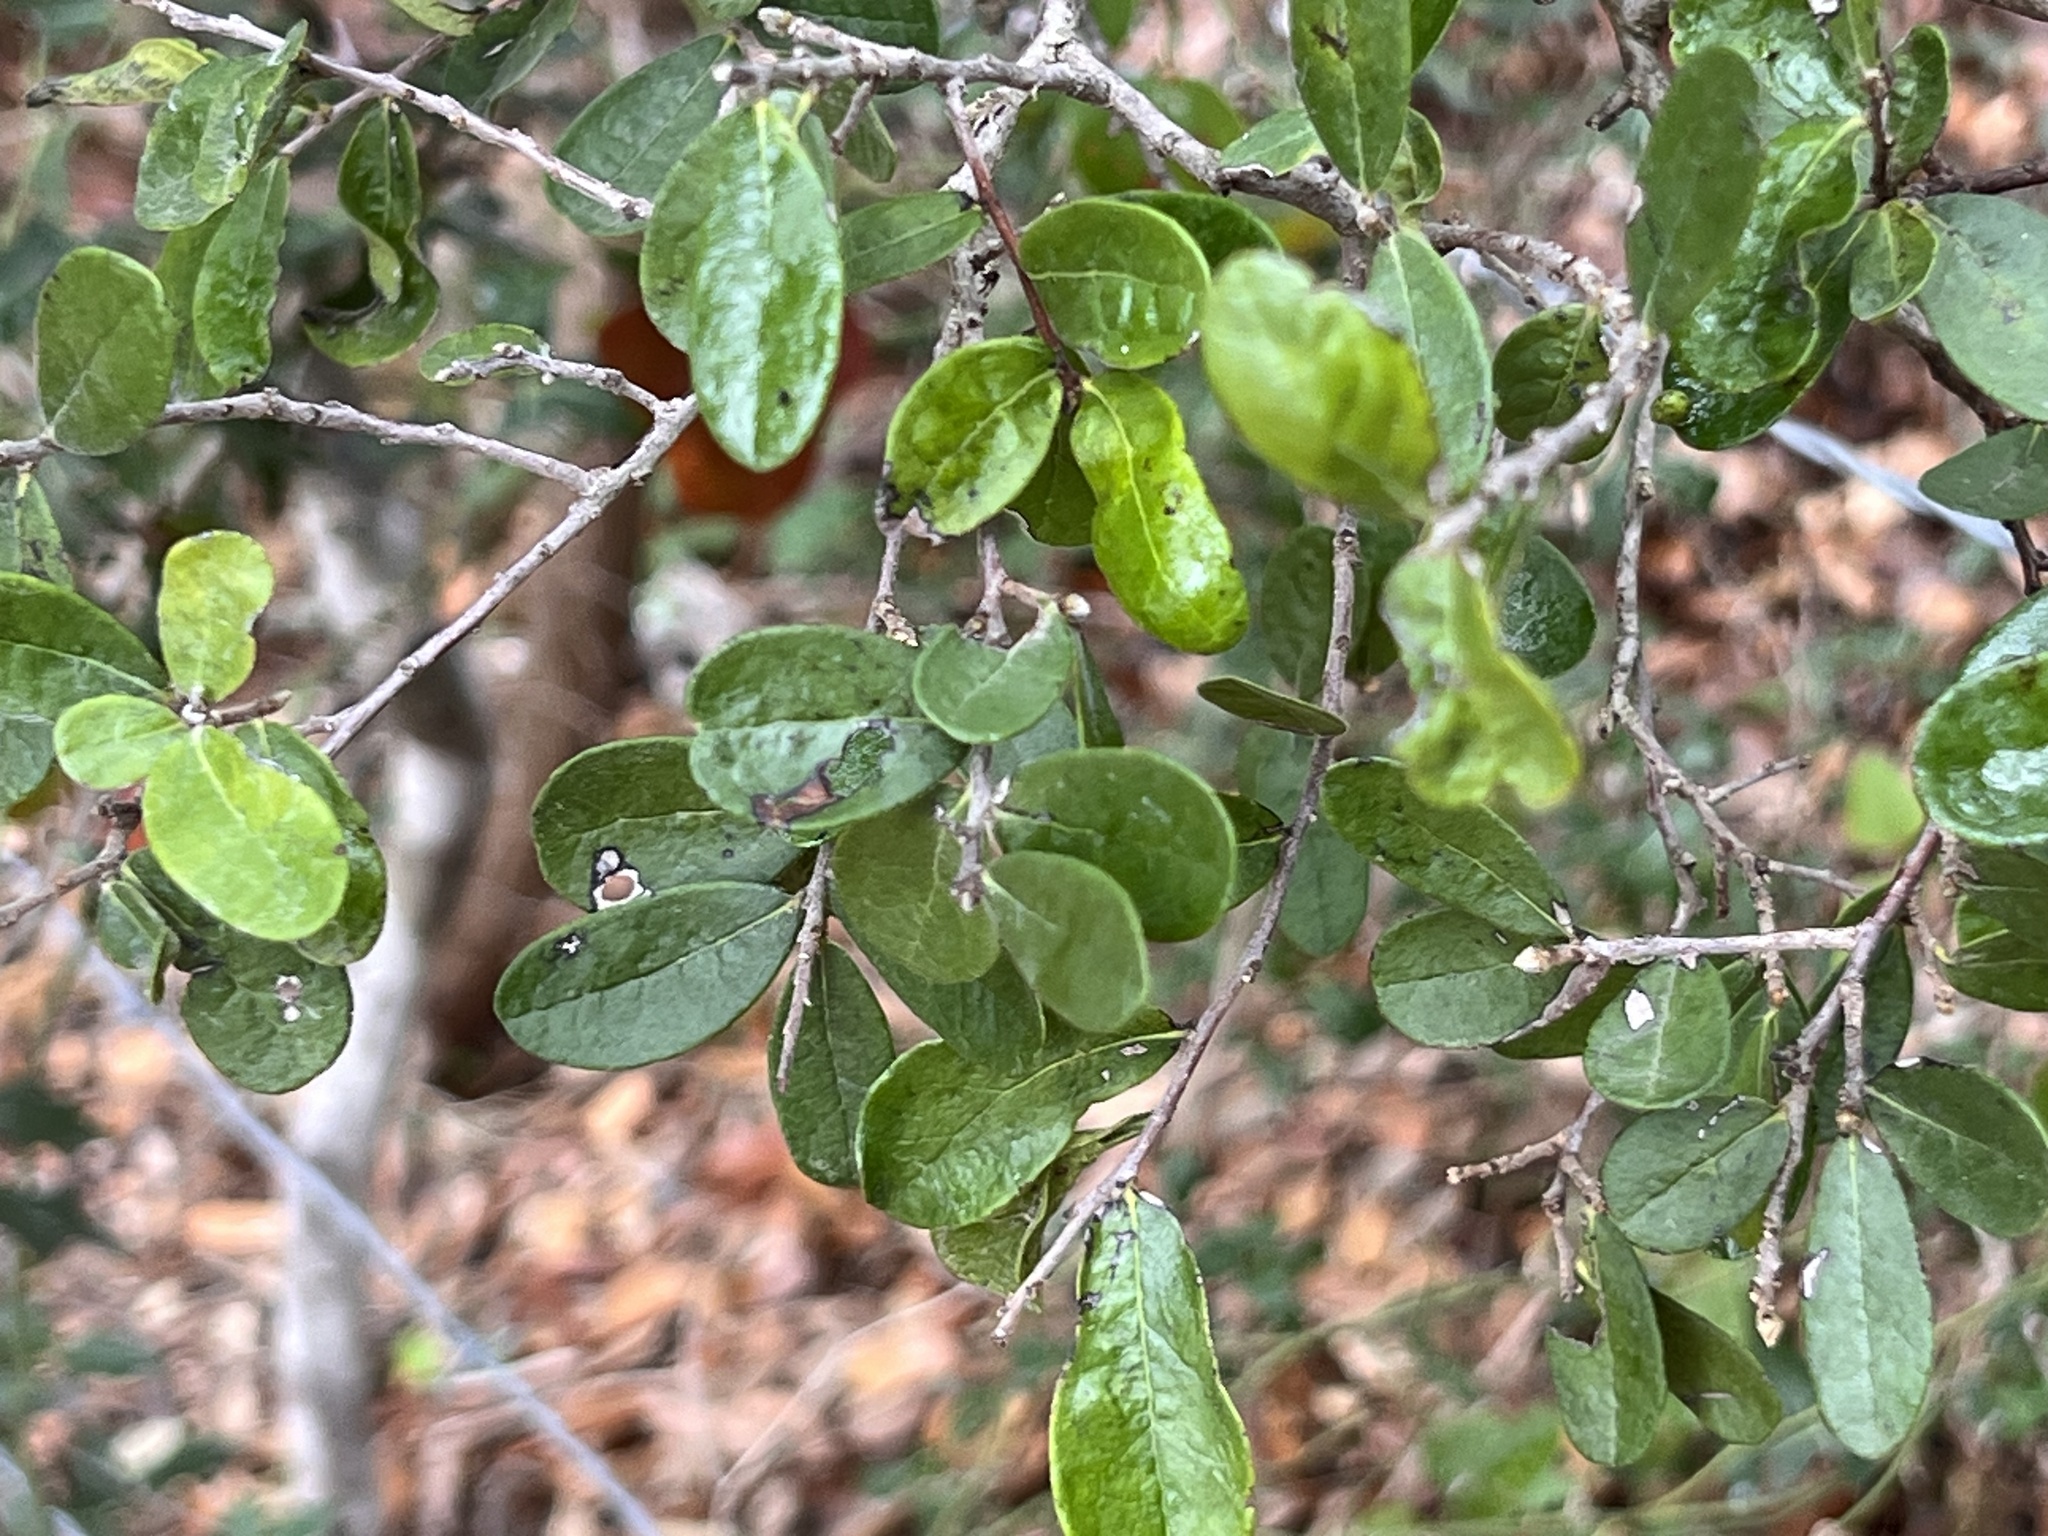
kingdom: Plantae
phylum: Tracheophyta
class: Magnoliopsida
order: Ericales
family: Ebenaceae
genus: Diospyros
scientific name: Diospyros texana
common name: Texas persimmon
